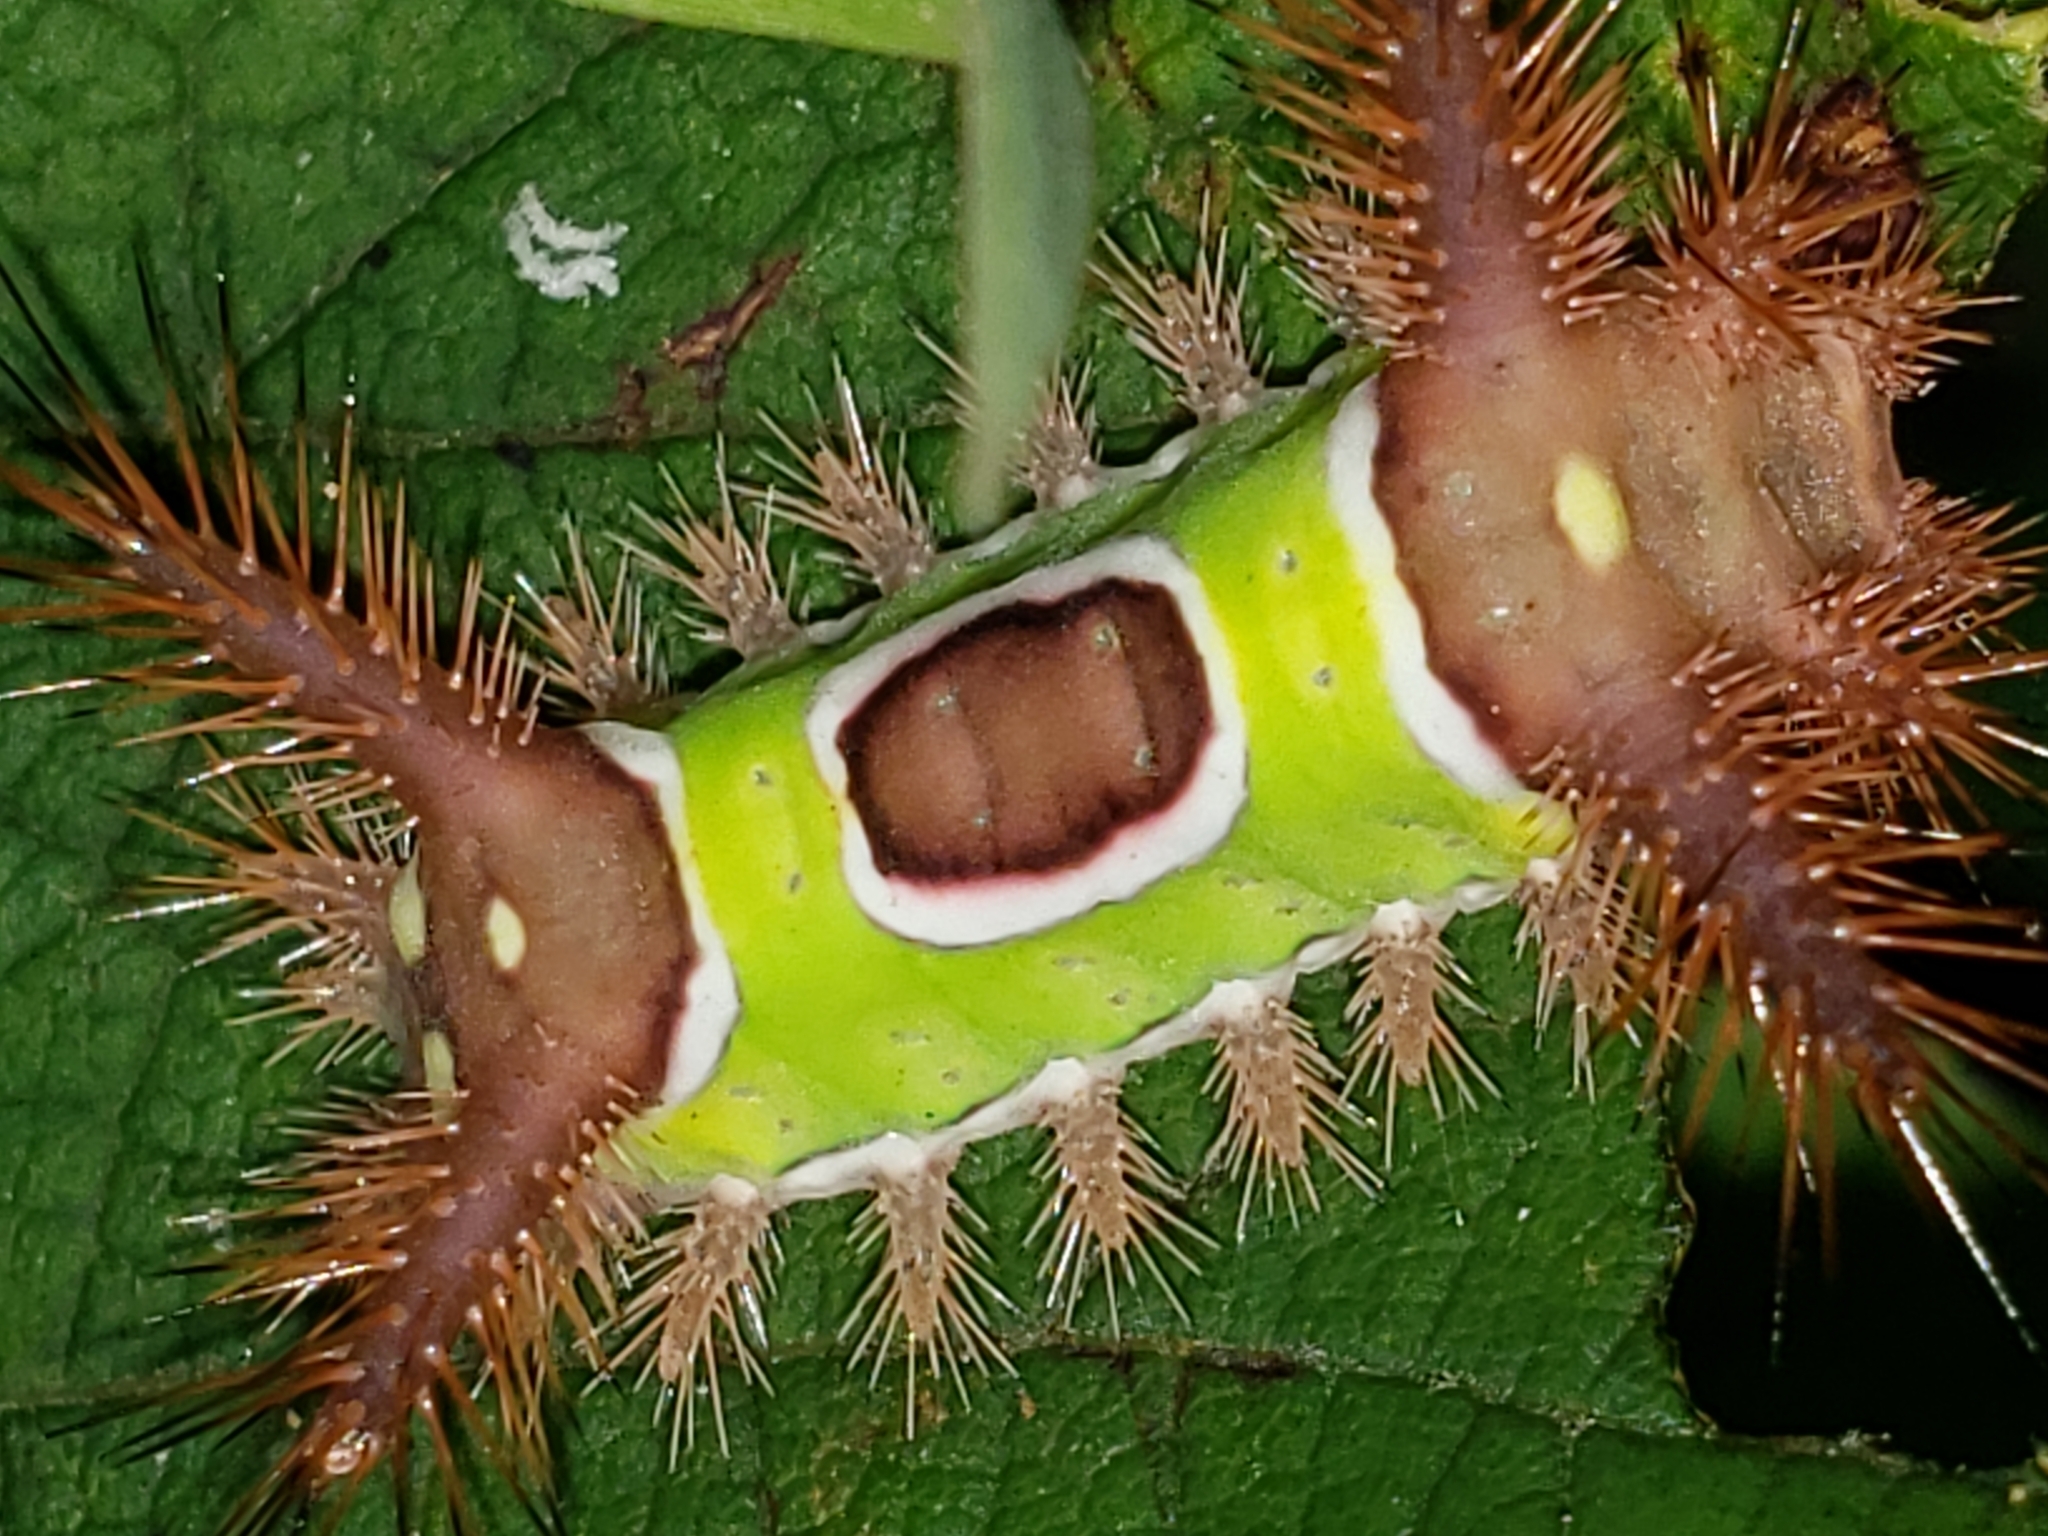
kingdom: Animalia
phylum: Arthropoda
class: Insecta
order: Lepidoptera
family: Limacodidae
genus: Acharia
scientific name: Acharia stimulea
